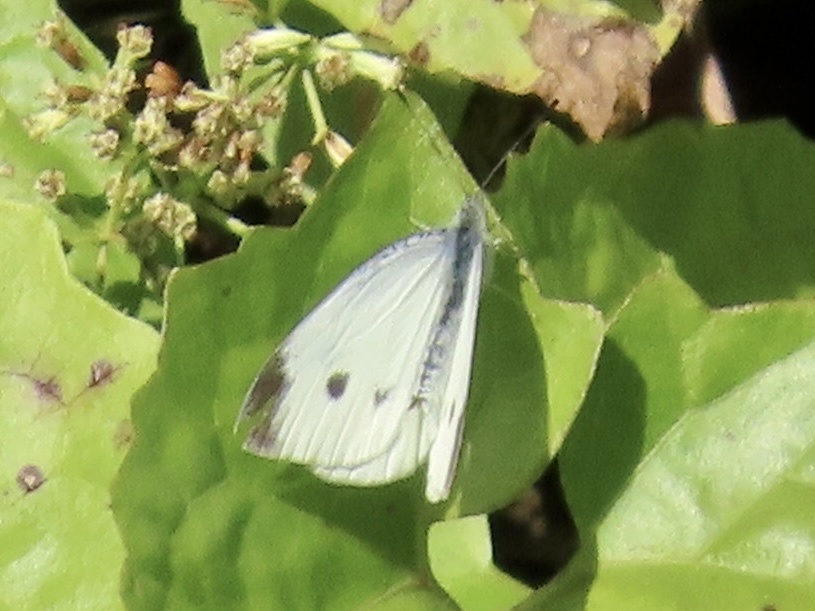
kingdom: Animalia
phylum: Arthropoda
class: Insecta
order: Lepidoptera
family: Pieridae
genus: Pieris
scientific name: Pieris rapae
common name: Small white
